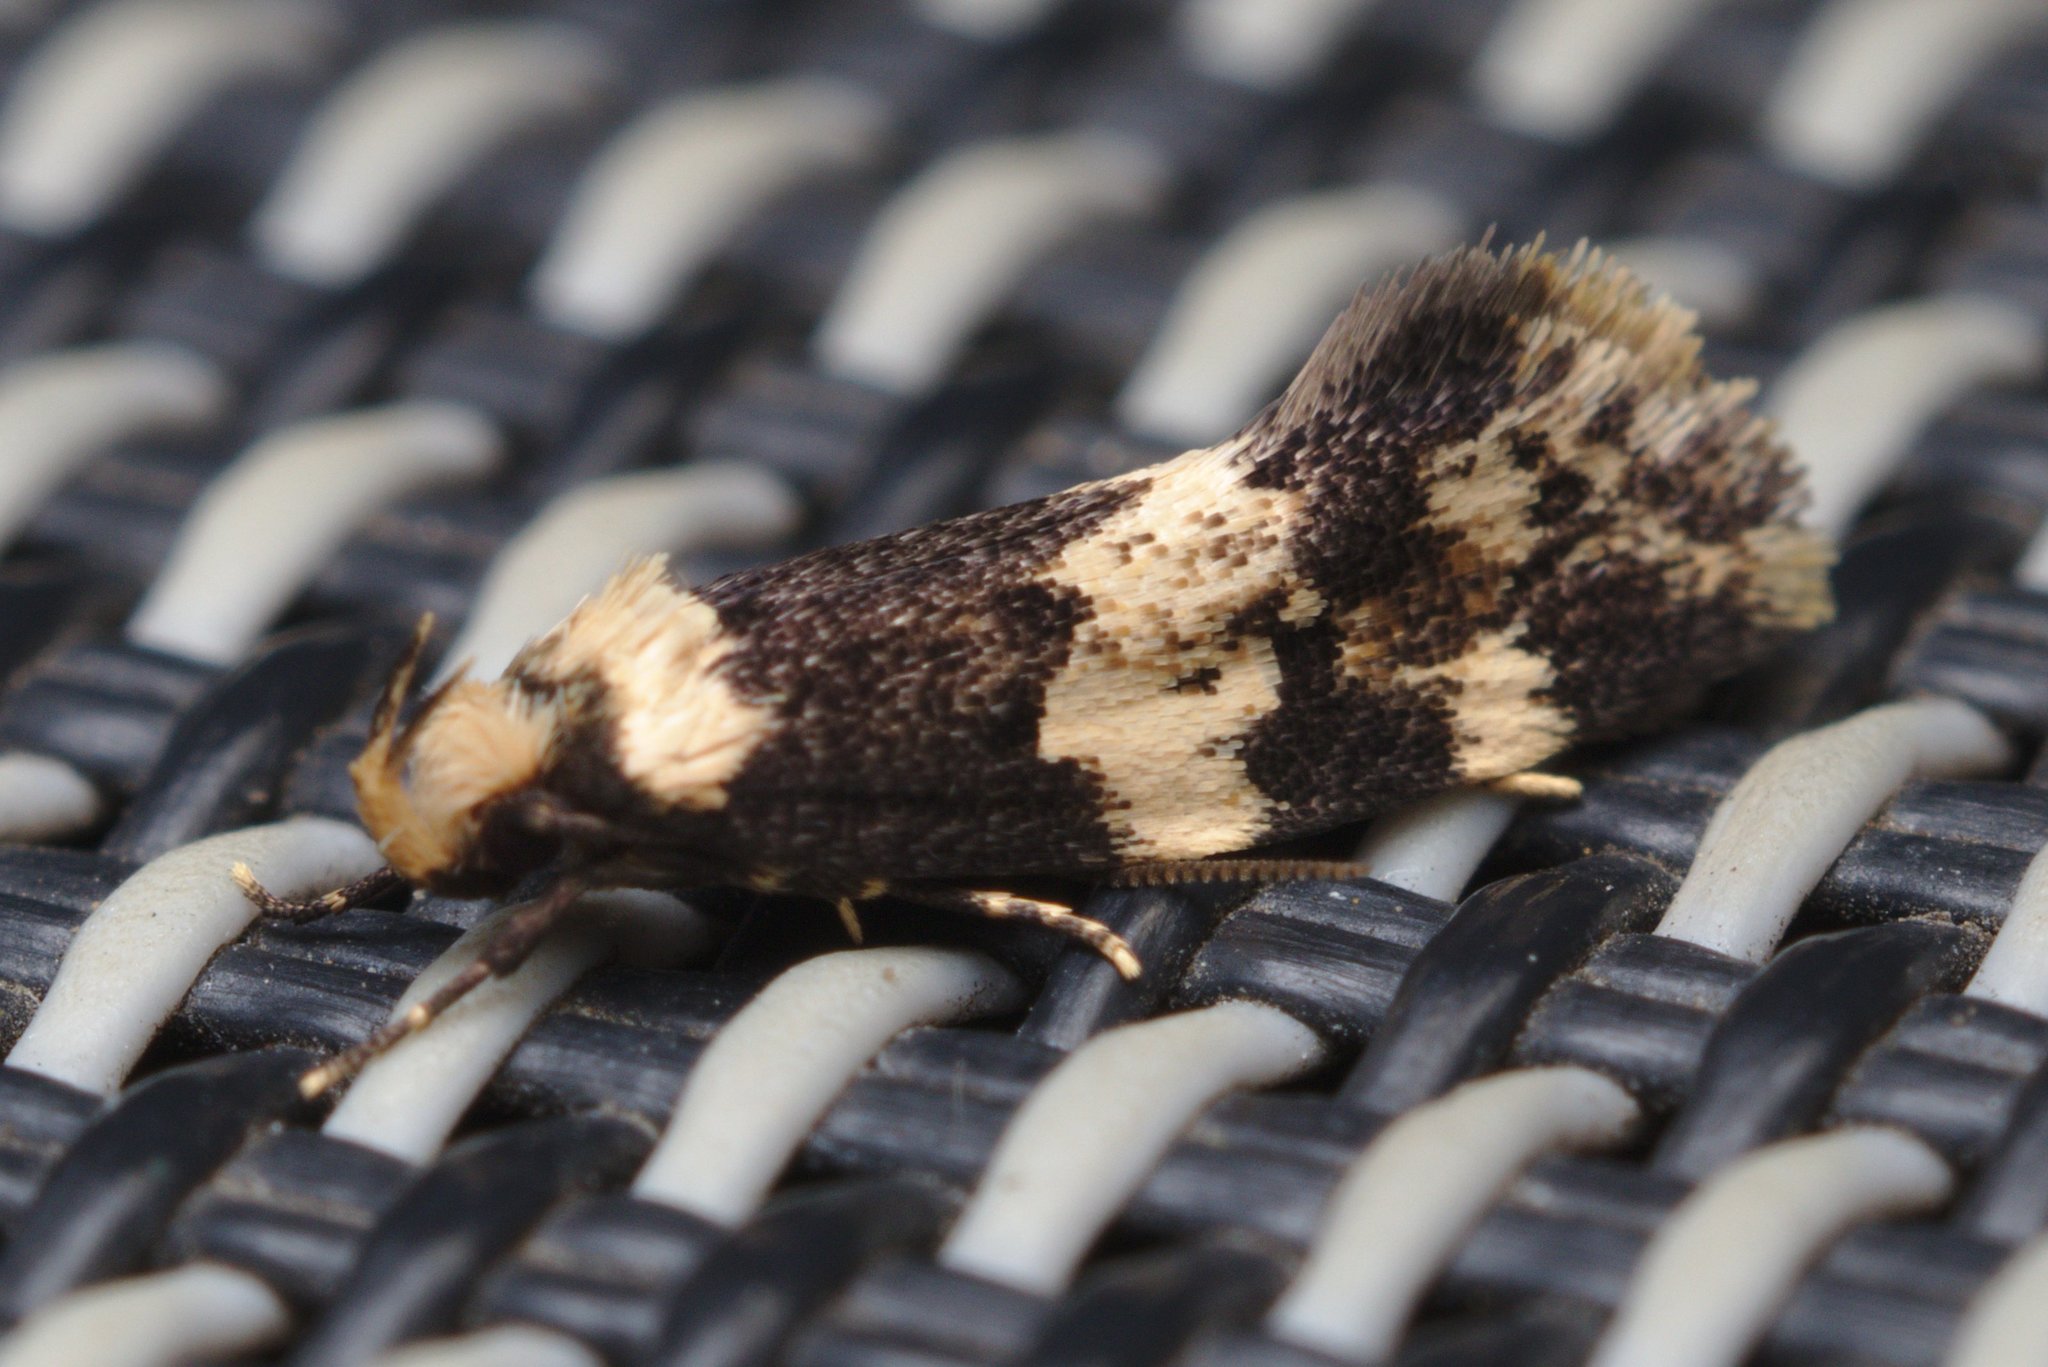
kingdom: Animalia
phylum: Arthropoda
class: Insecta
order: Lepidoptera
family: Oecophoridae
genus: Sphyrelata
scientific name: Sphyrelata amotella
